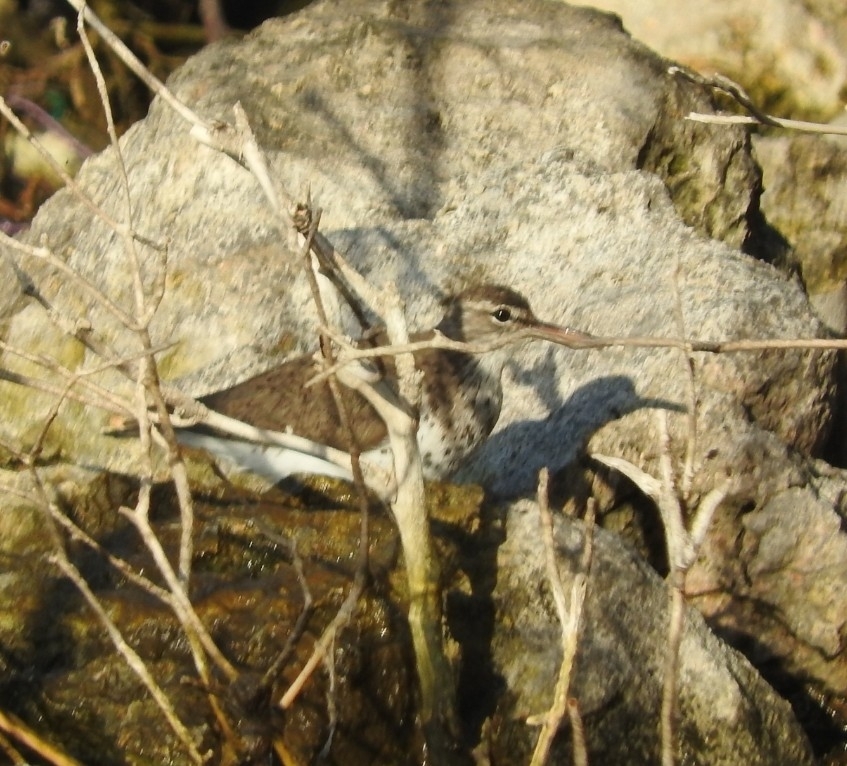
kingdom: Animalia
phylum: Chordata
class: Aves
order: Charadriiformes
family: Scolopacidae
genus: Actitis
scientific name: Actitis macularius
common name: Spotted sandpiper
